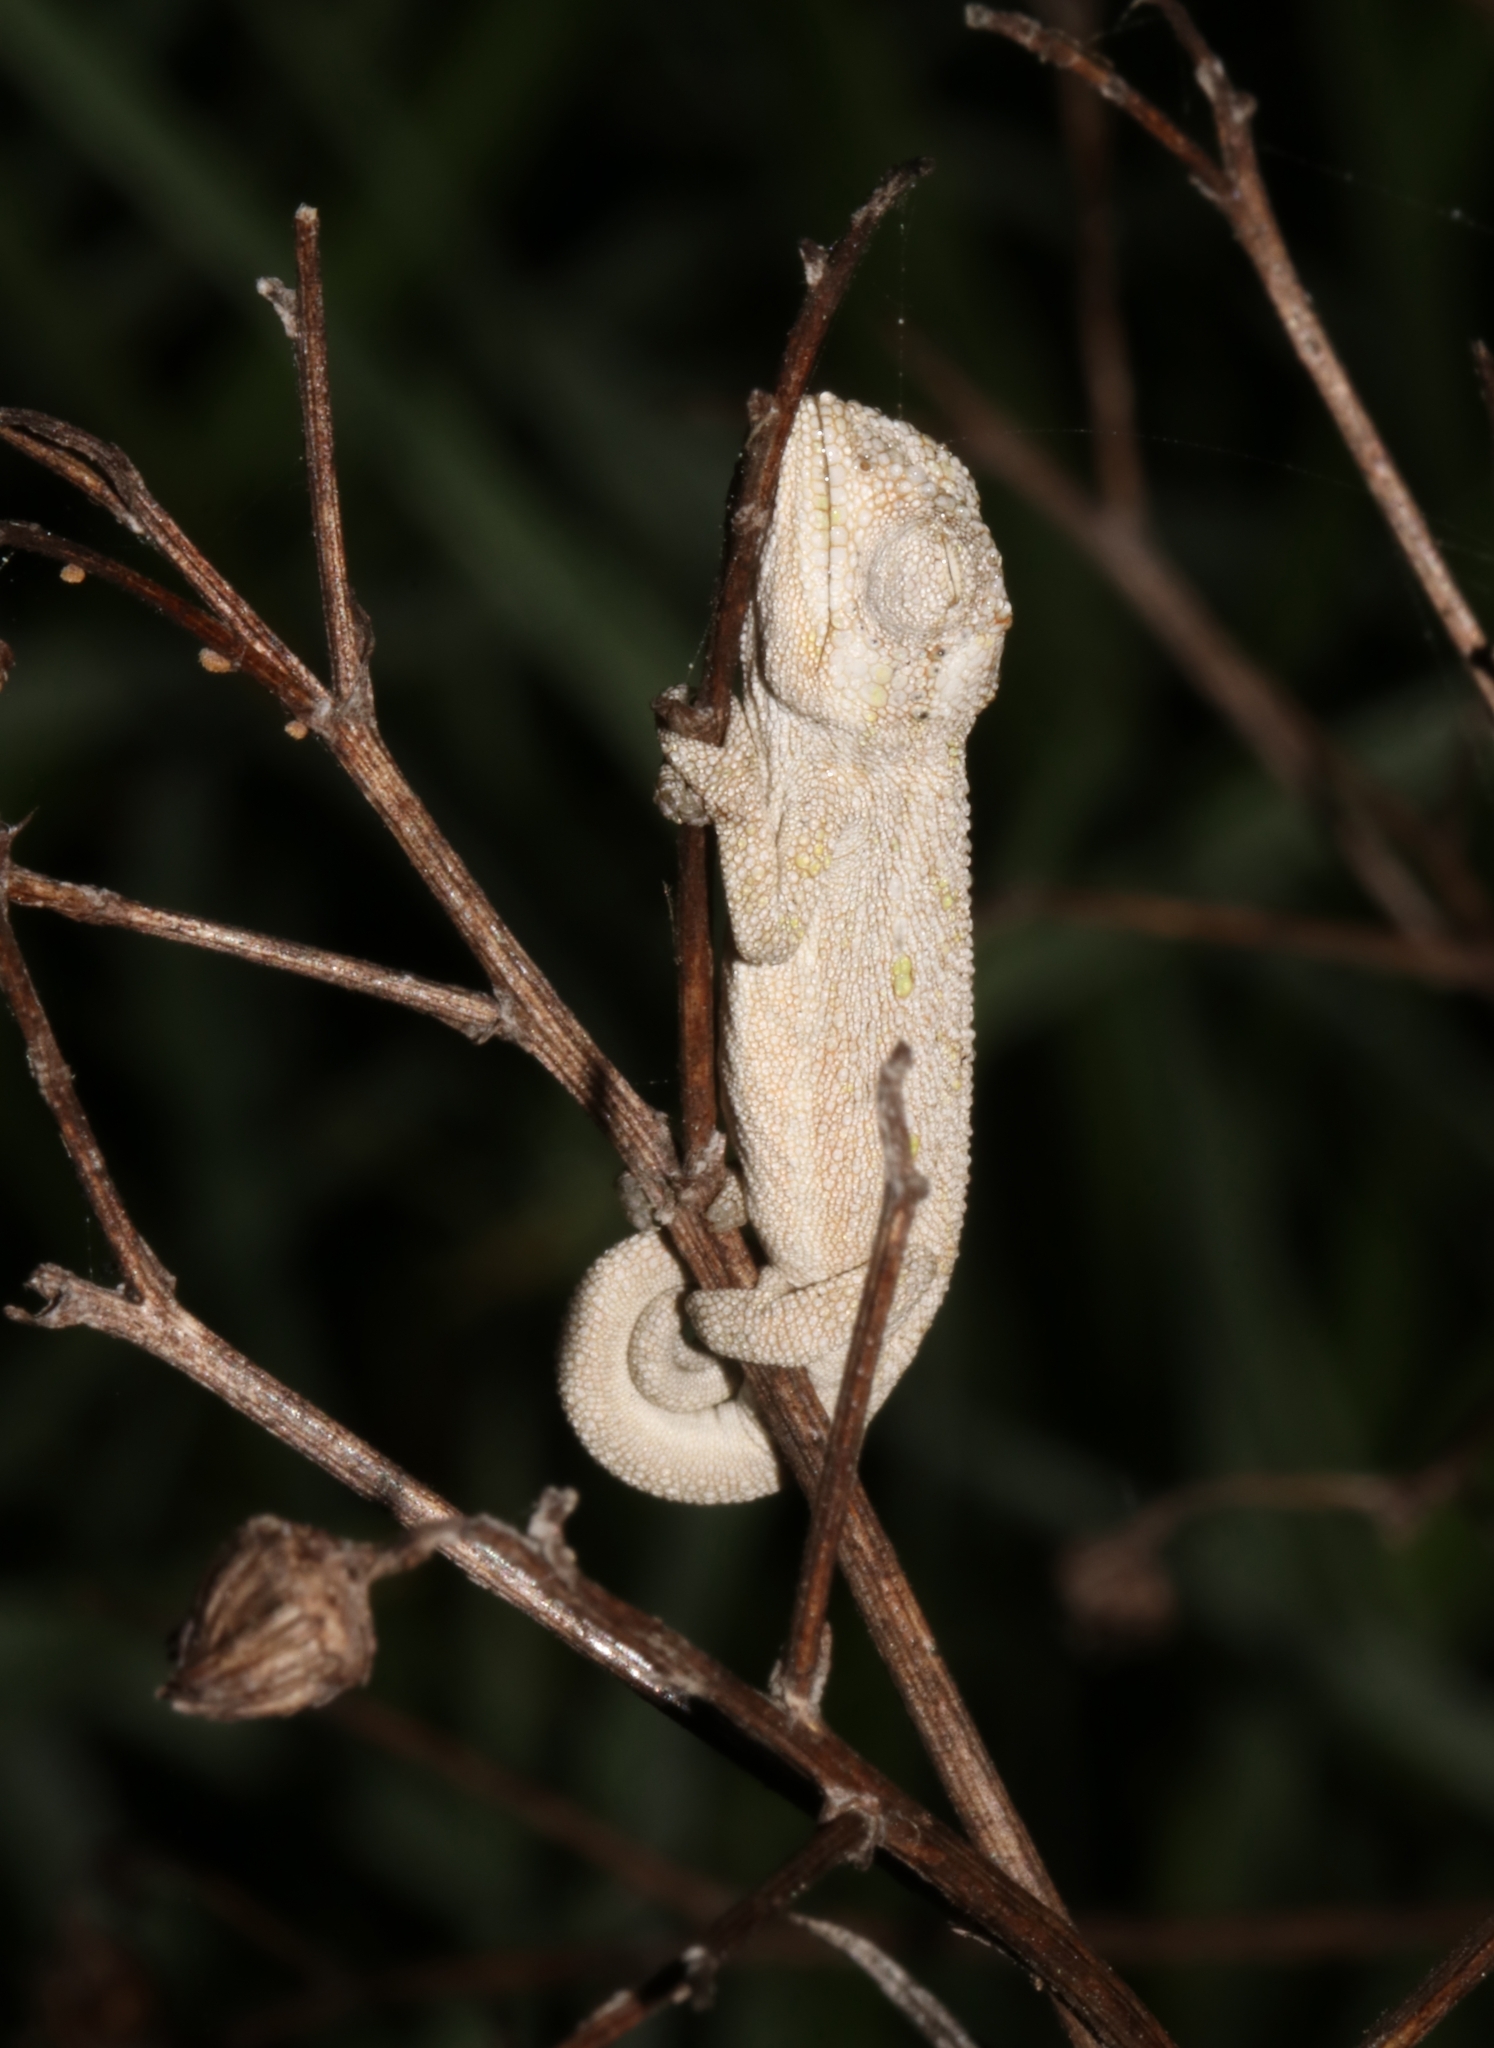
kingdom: Animalia
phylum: Chordata
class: Squamata
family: Chamaeleonidae
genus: Bradypodion
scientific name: Bradypodion pumilum
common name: Cape dwarf chameleon
